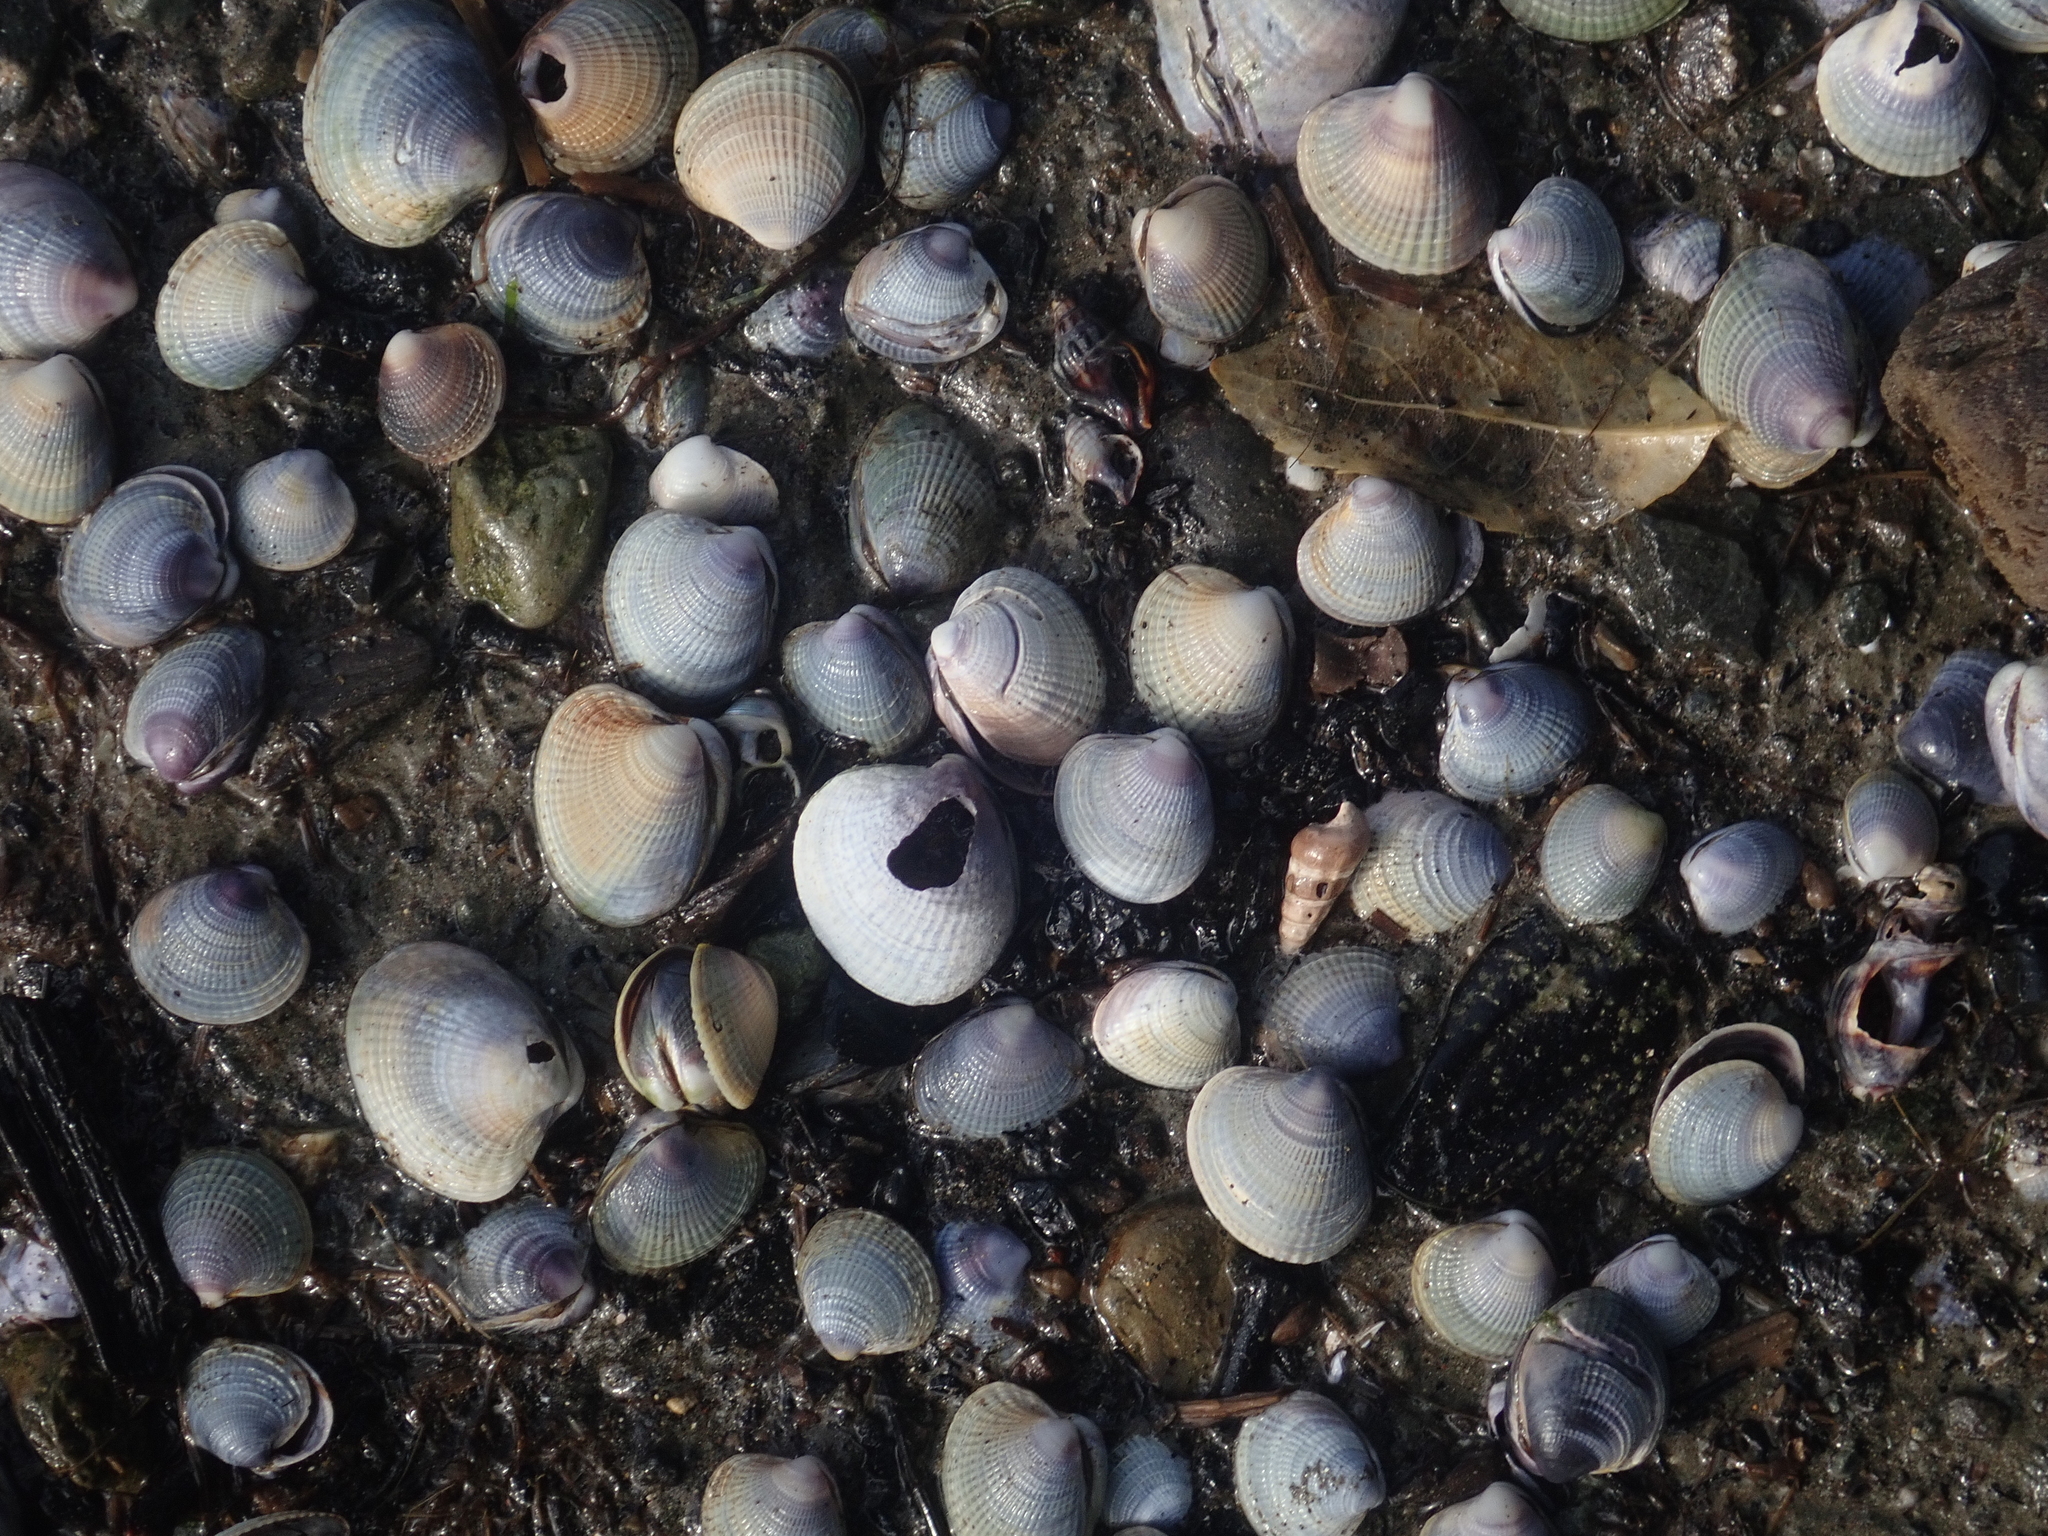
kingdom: Animalia
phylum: Mollusca
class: Bivalvia
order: Venerida
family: Veneridae
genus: Austrovenus
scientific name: Austrovenus stutchburyi
